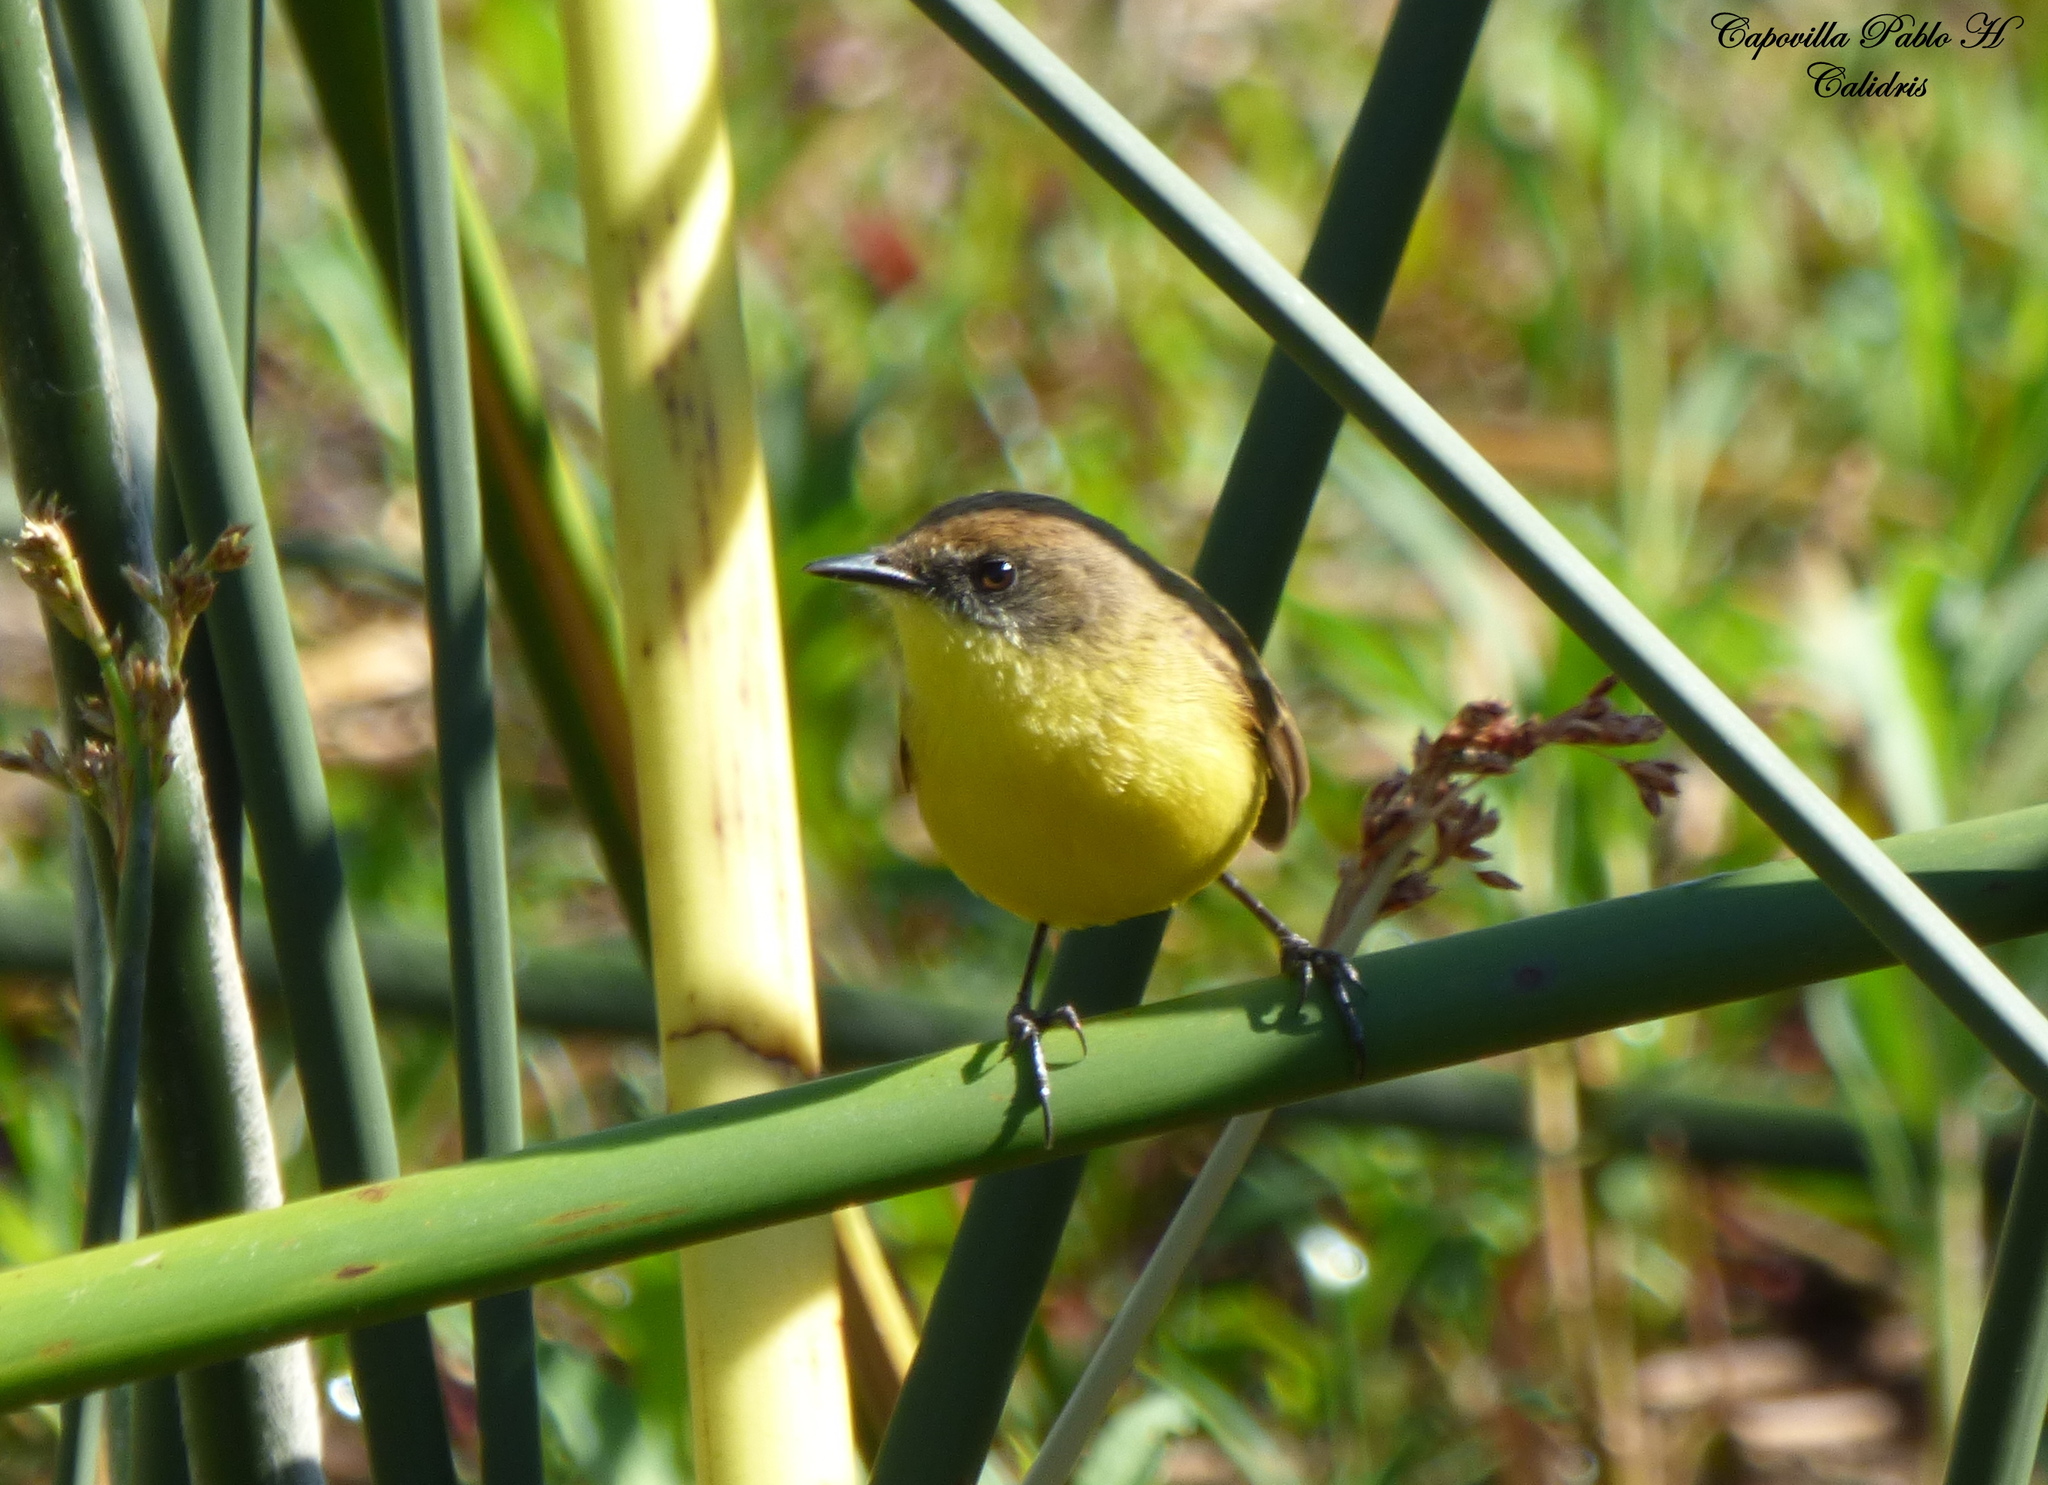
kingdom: Animalia
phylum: Chordata
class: Aves
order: Passeriformes
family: Tyrannidae
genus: Pseudocolopteryx
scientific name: Pseudocolopteryx citreola
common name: Ticking doradito
